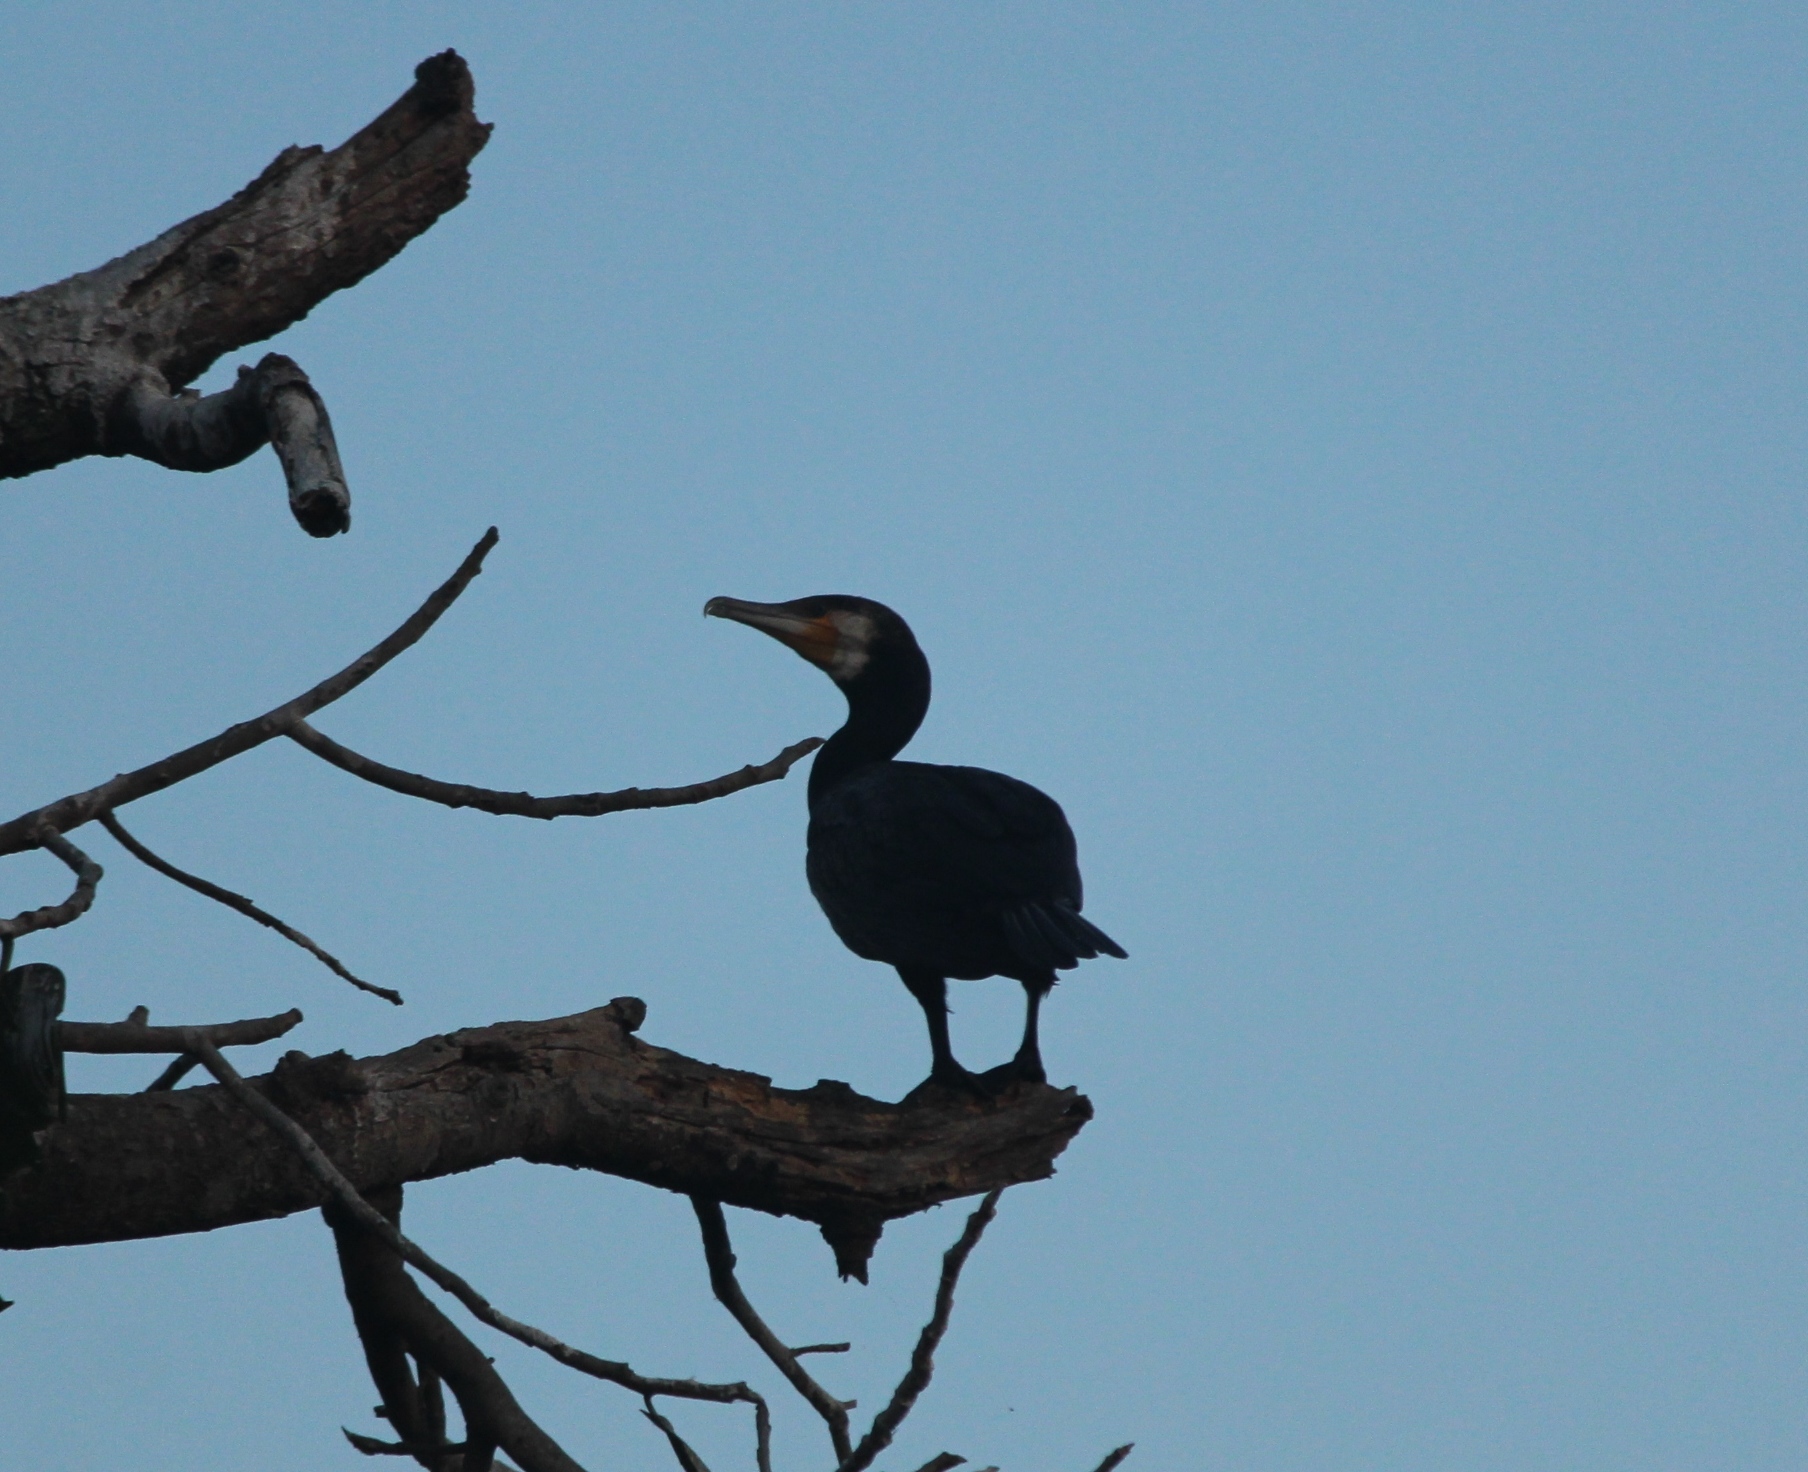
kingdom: Animalia
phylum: Chordata
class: Aves
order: Suliformes
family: Phalacrocoracidae
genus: Phalacrocorax
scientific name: Phalacrocorax carbo
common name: Great cormorant
